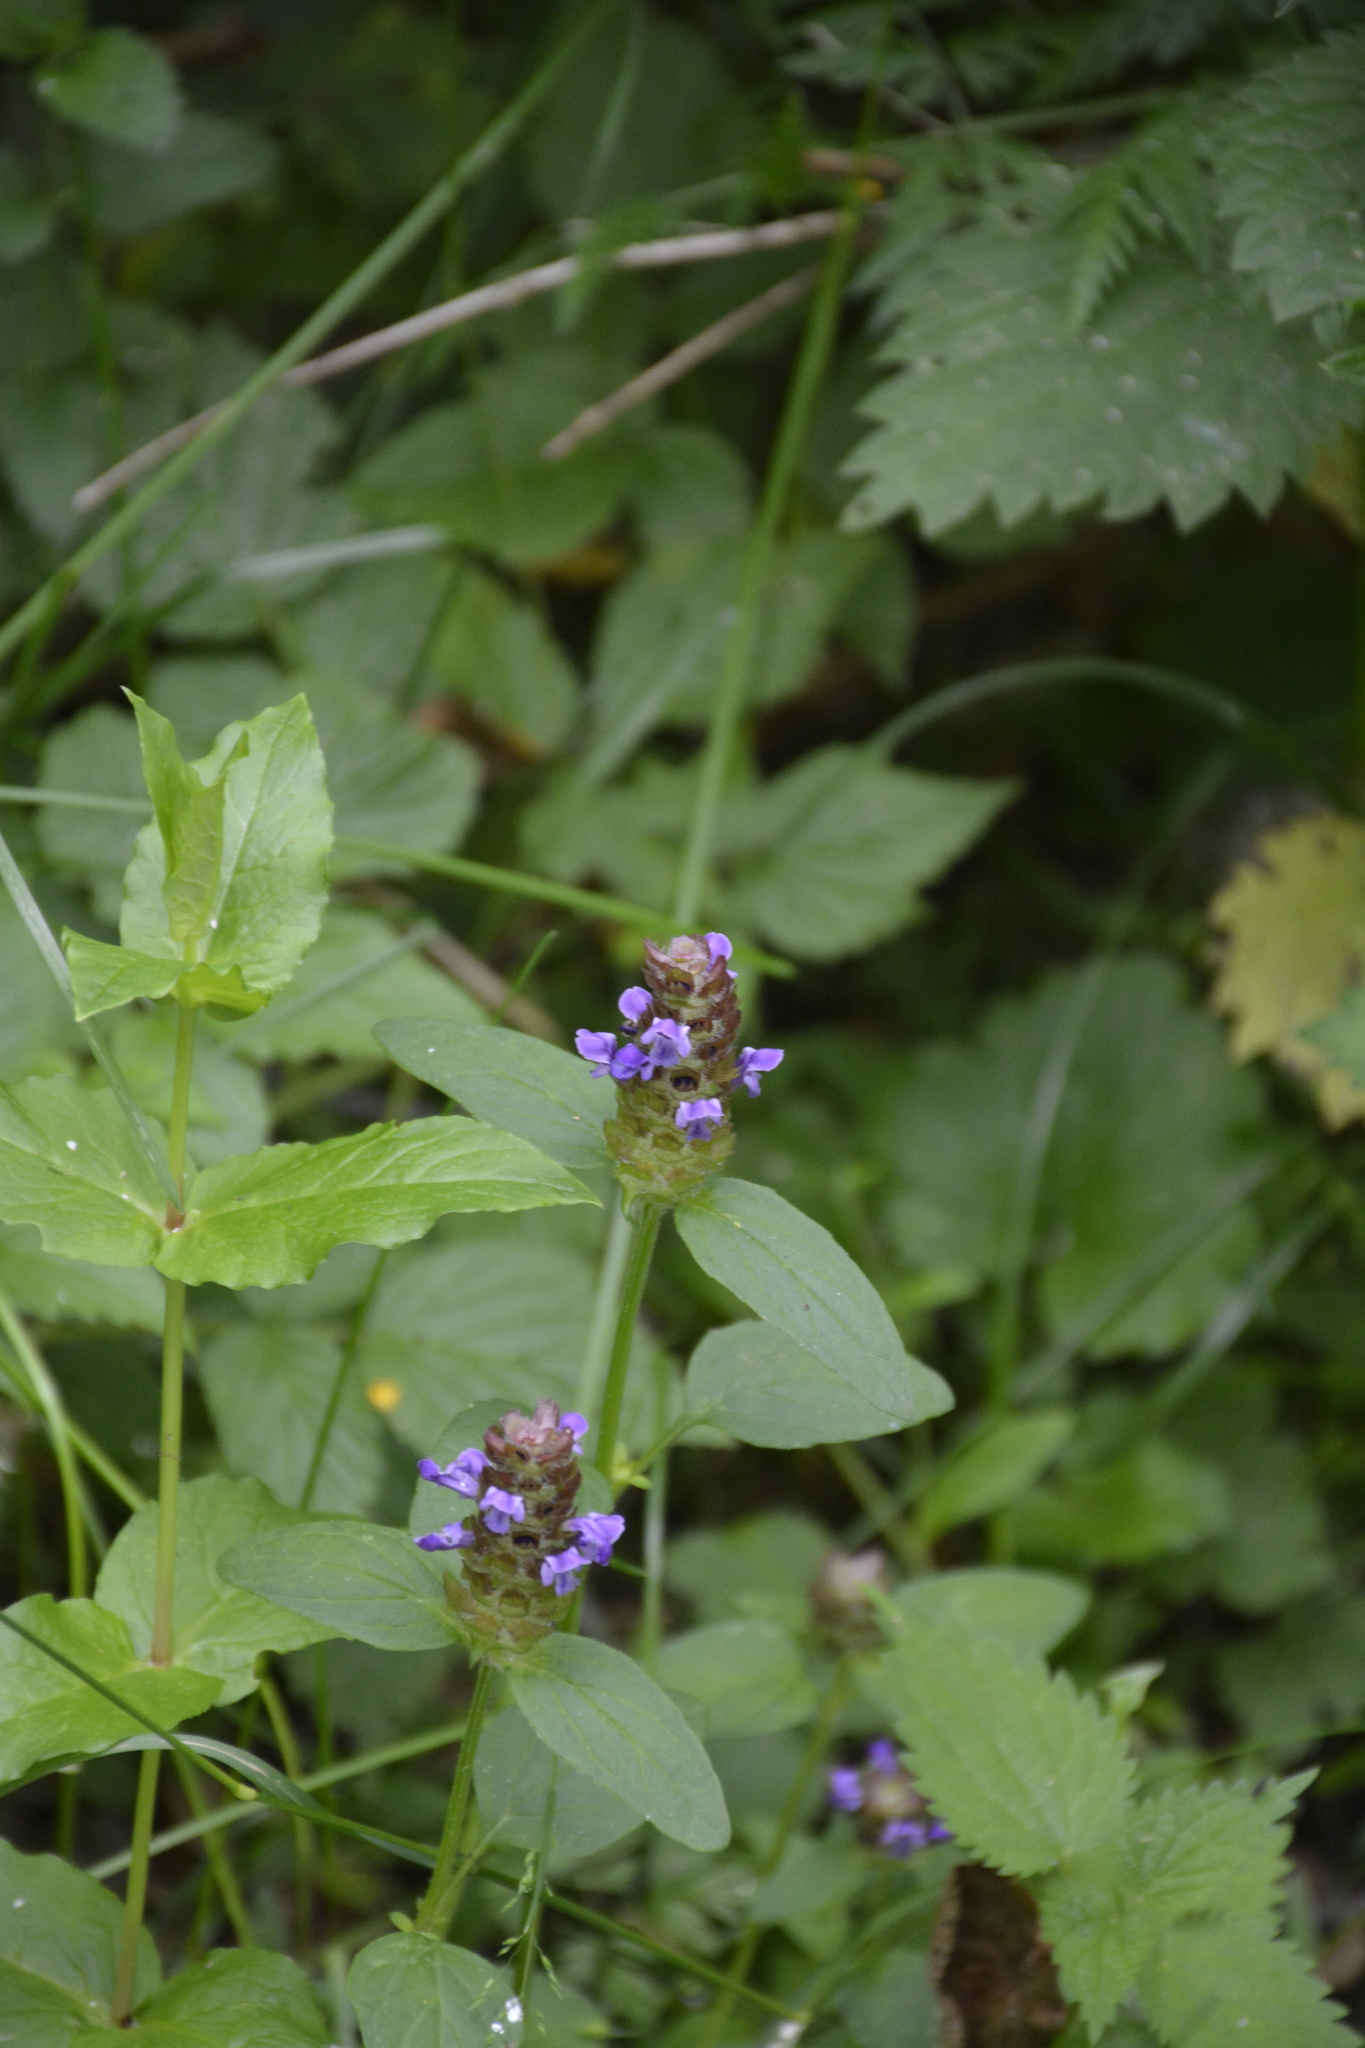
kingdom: Plantae
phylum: Tracheophyta
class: Magnoliopsida
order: Lamiales
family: Lamiaceae
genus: Prunella
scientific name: Prunella vulgaris
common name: Heal-all
